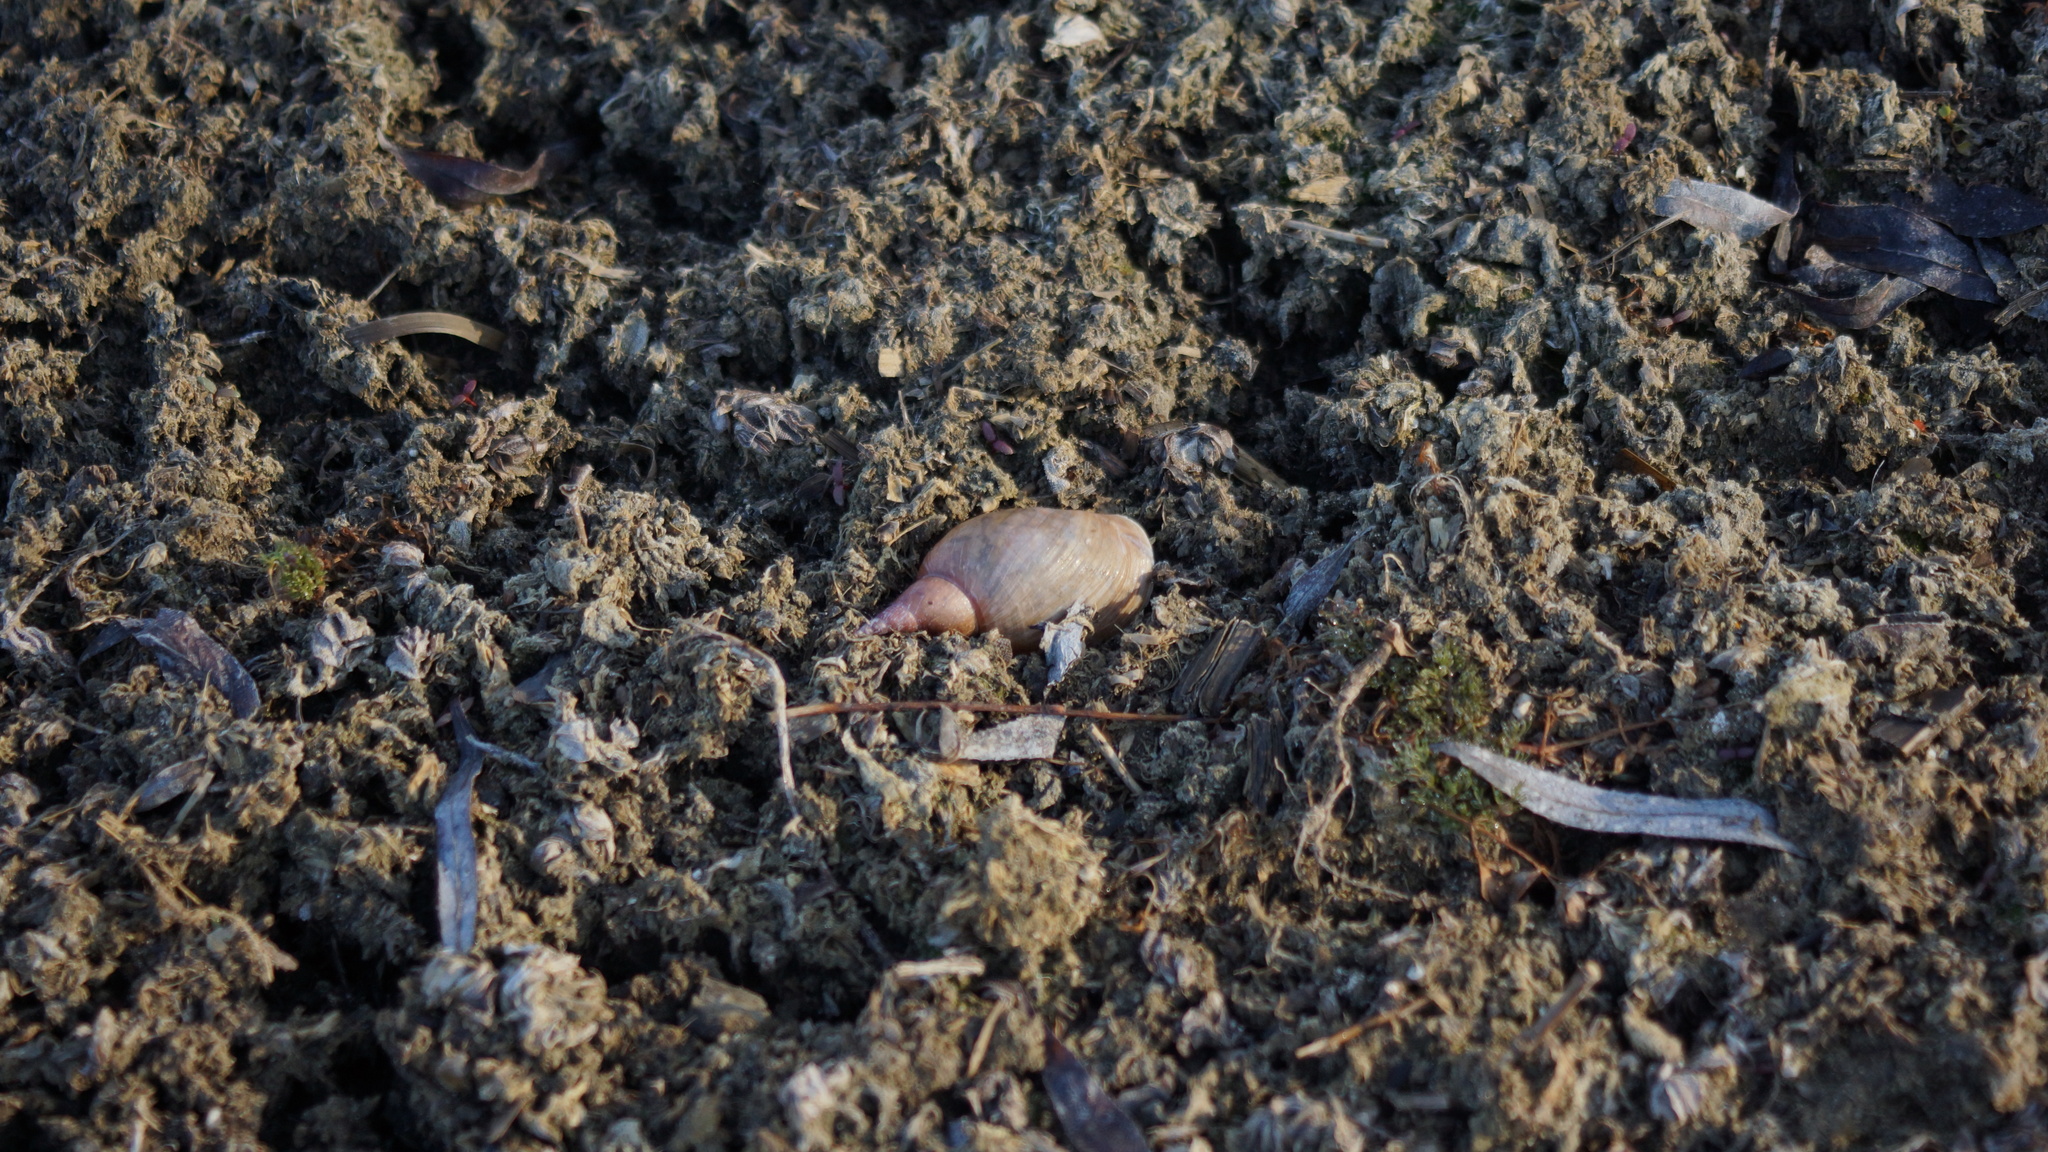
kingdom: Animalia
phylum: Mollusca
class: Gastropoda
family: Lymnaeidae
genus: Lymnaea
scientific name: Lymnaea stagnalis
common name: Great pond snail
